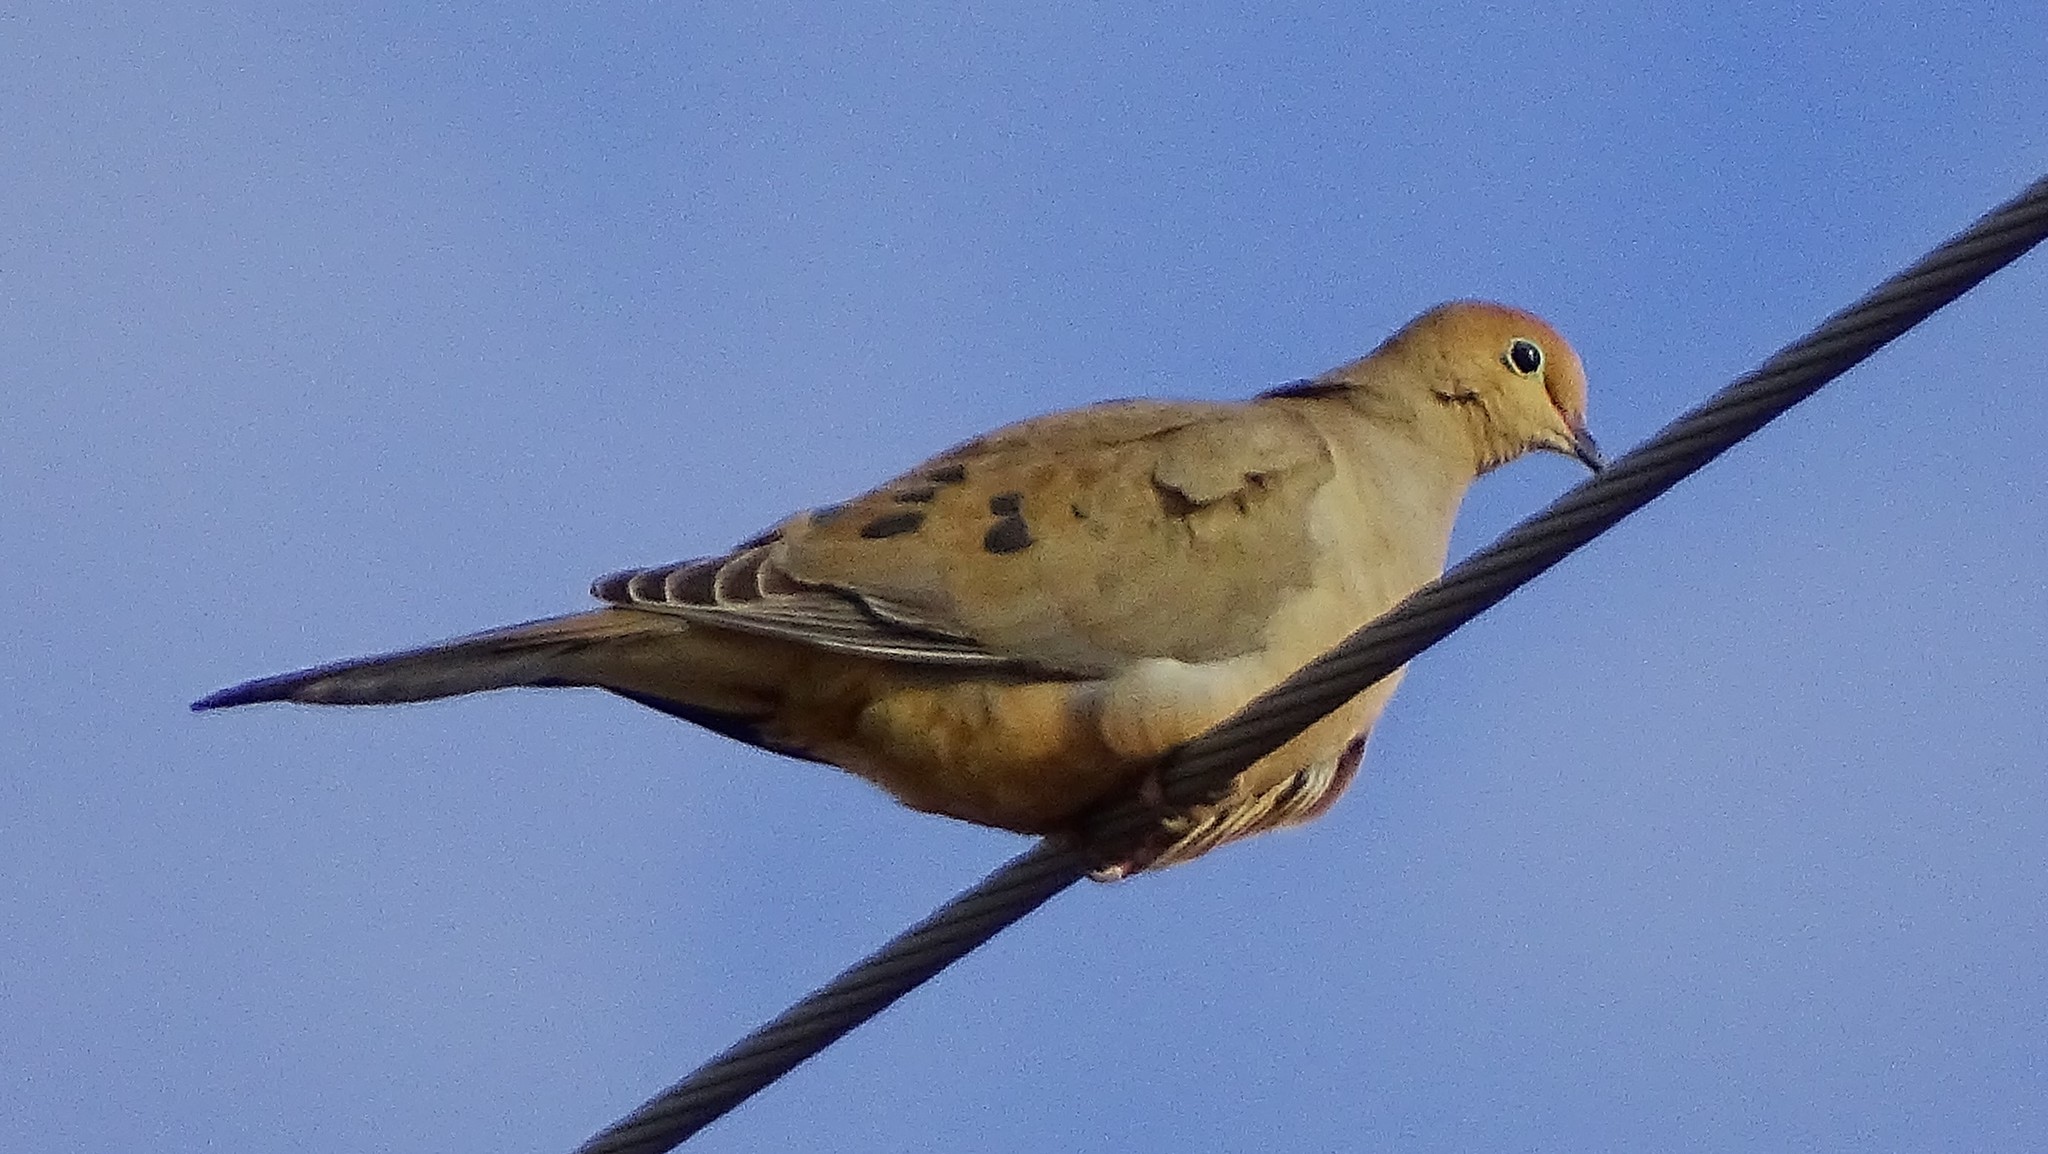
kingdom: Animalia
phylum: Chordata
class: Aves
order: Columbiformes
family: Columbidae
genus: Zenaida
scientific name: Zenaida macroura
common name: Mourning dove
